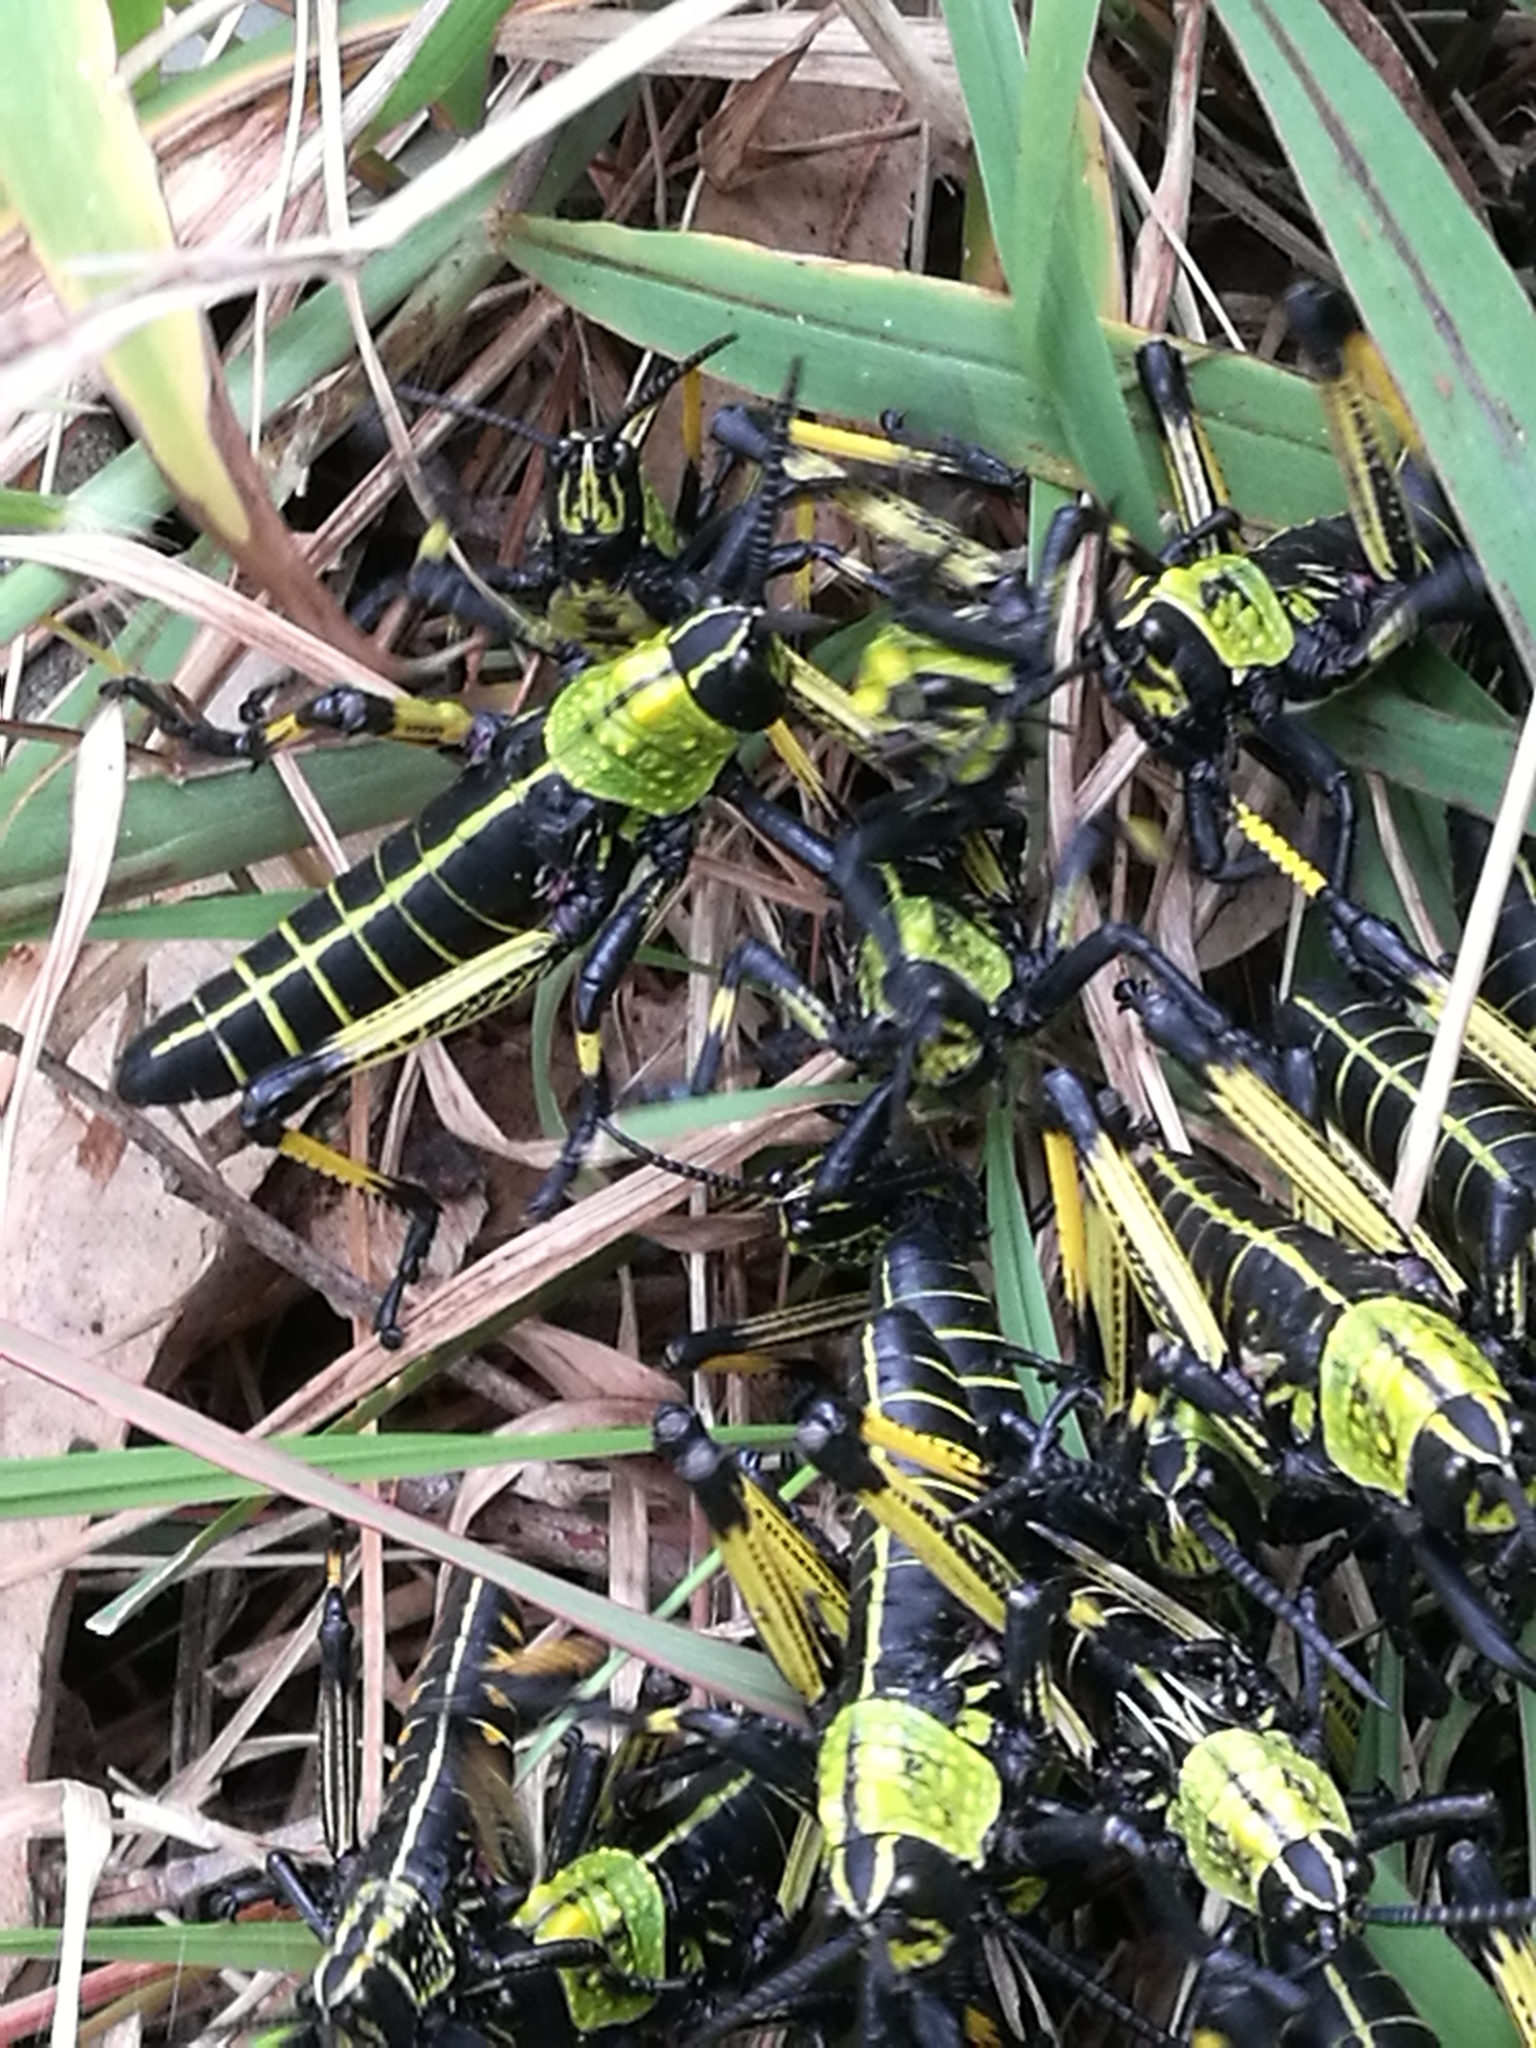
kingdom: Animalia
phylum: Arthropoda
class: Insecta
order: Orthoptera
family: Pyrgomorphidae
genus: Phymateus
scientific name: Phymateus leprosus
